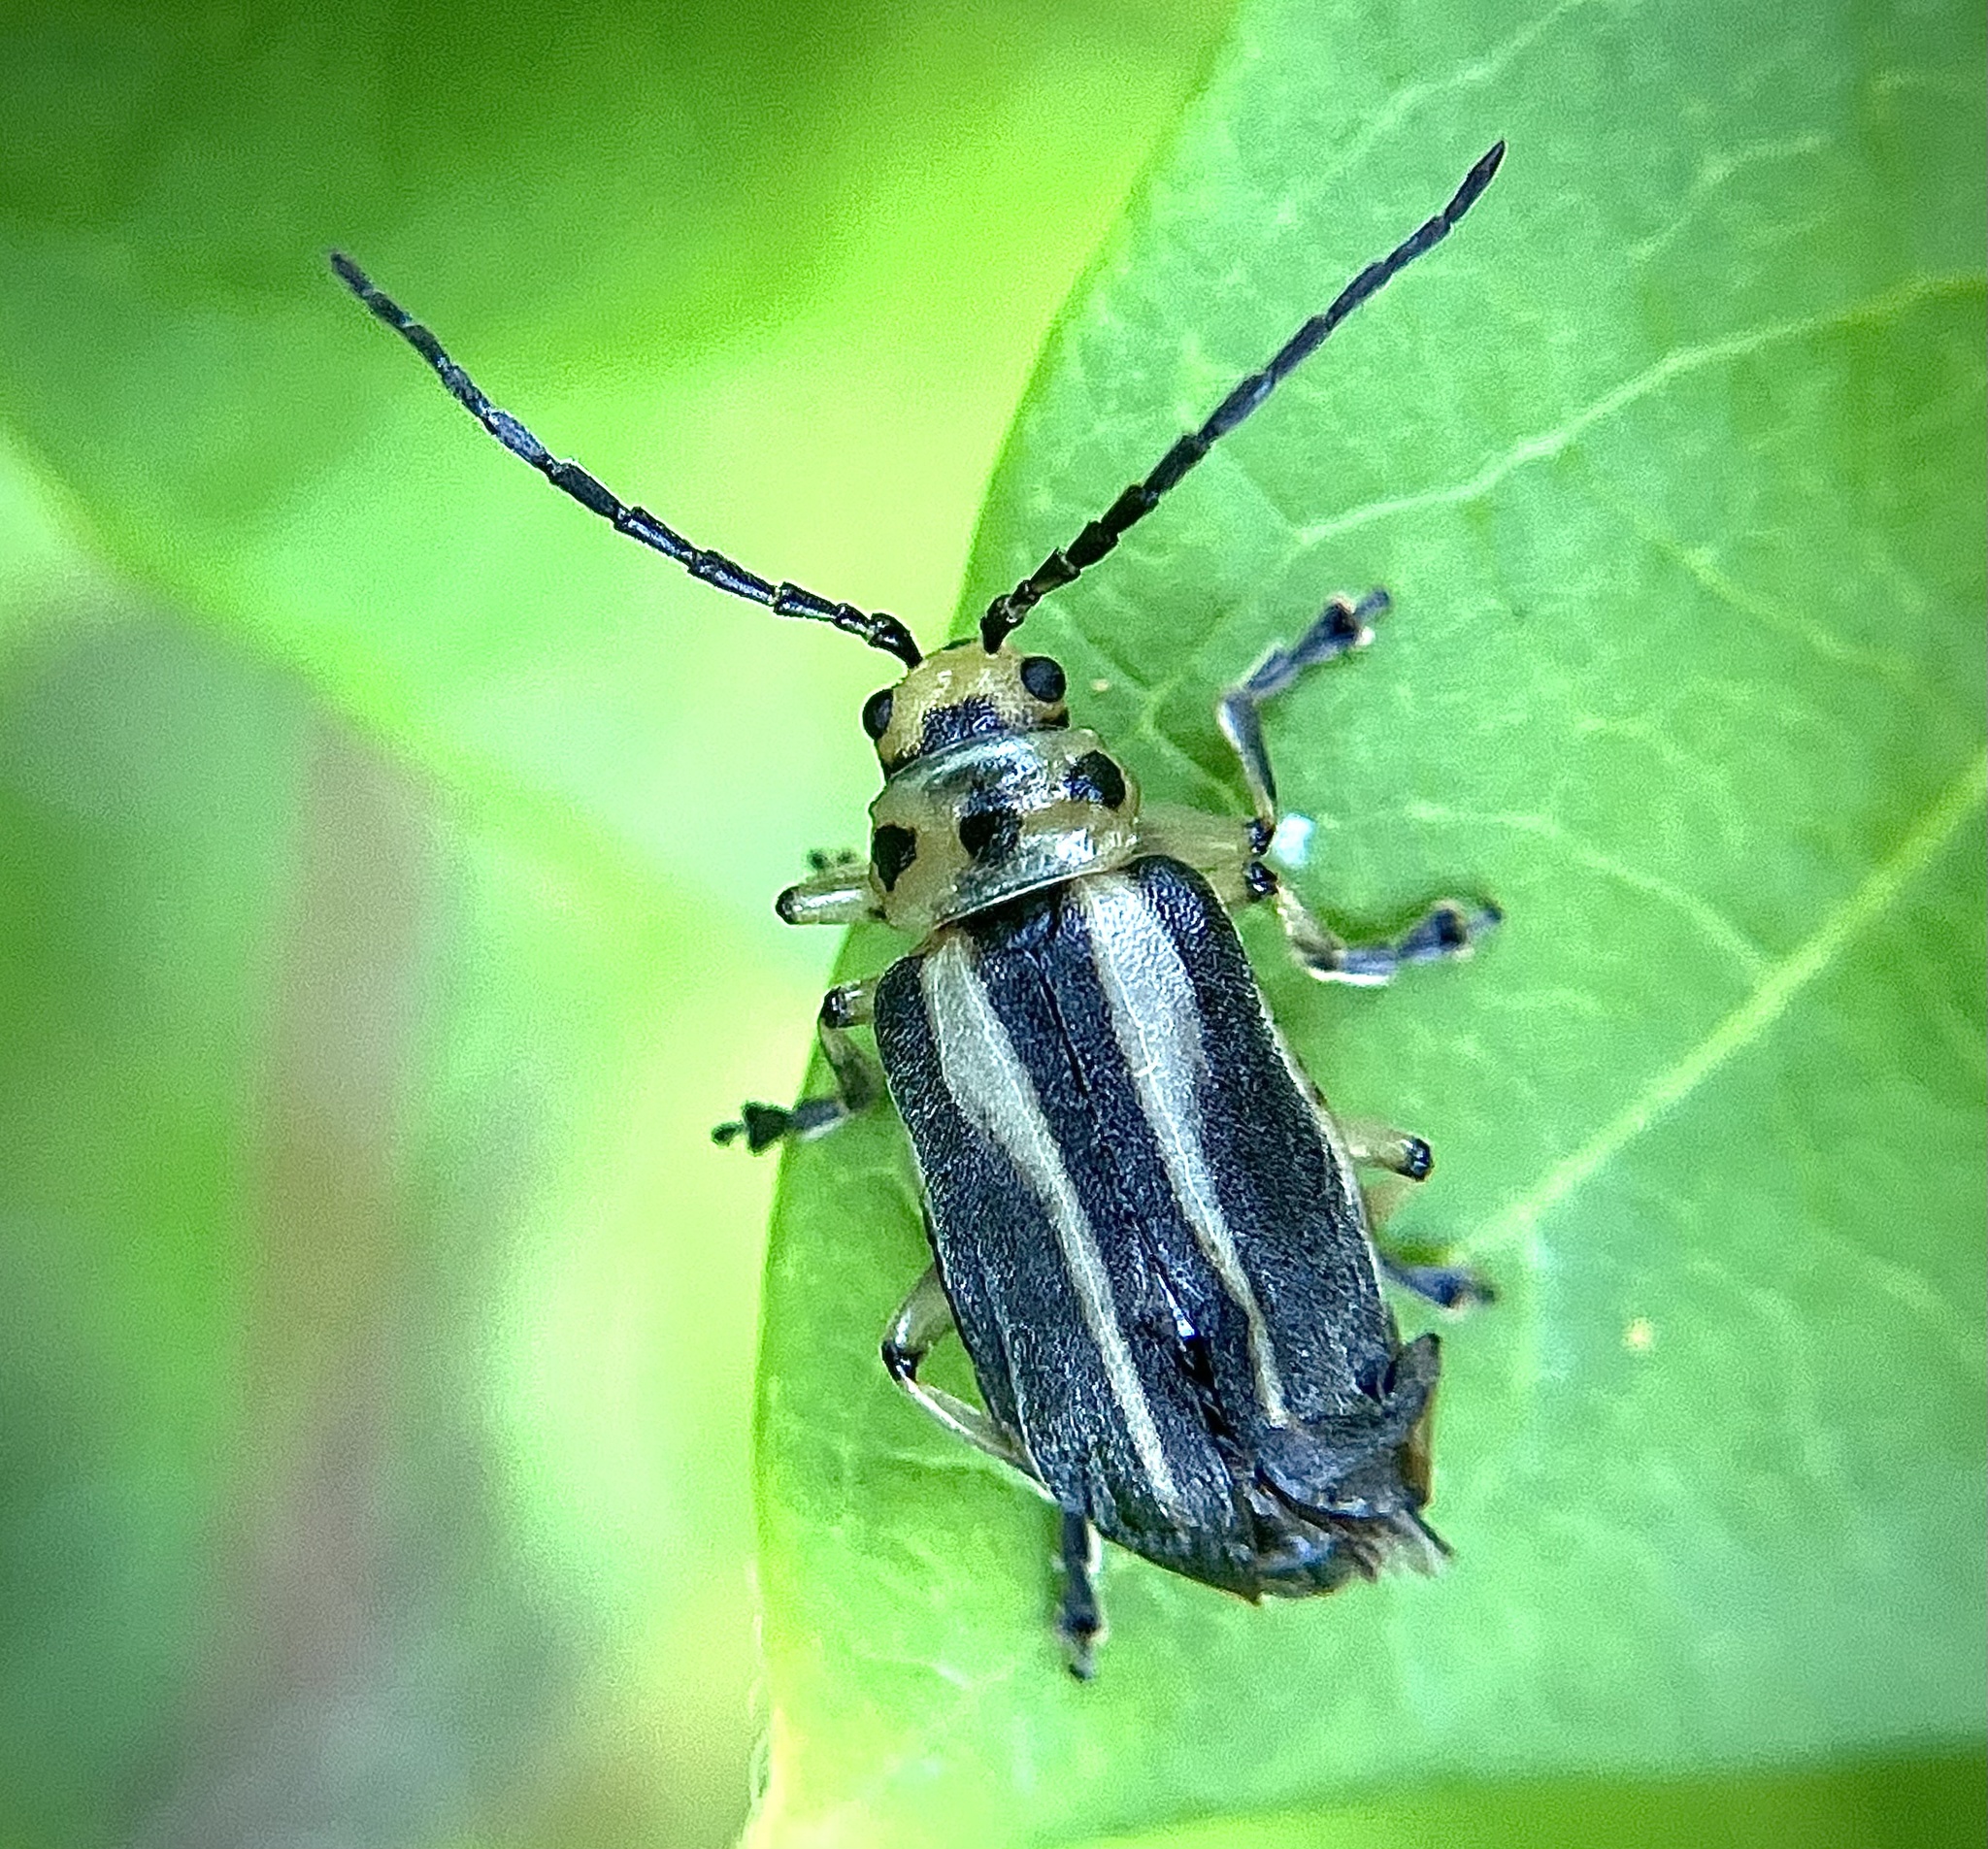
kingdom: Animalia
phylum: Arthropoda
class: Insecta
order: Coleoptera
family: Chrysomelidae
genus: Trirhabda
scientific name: Trirhabda bacharidis
